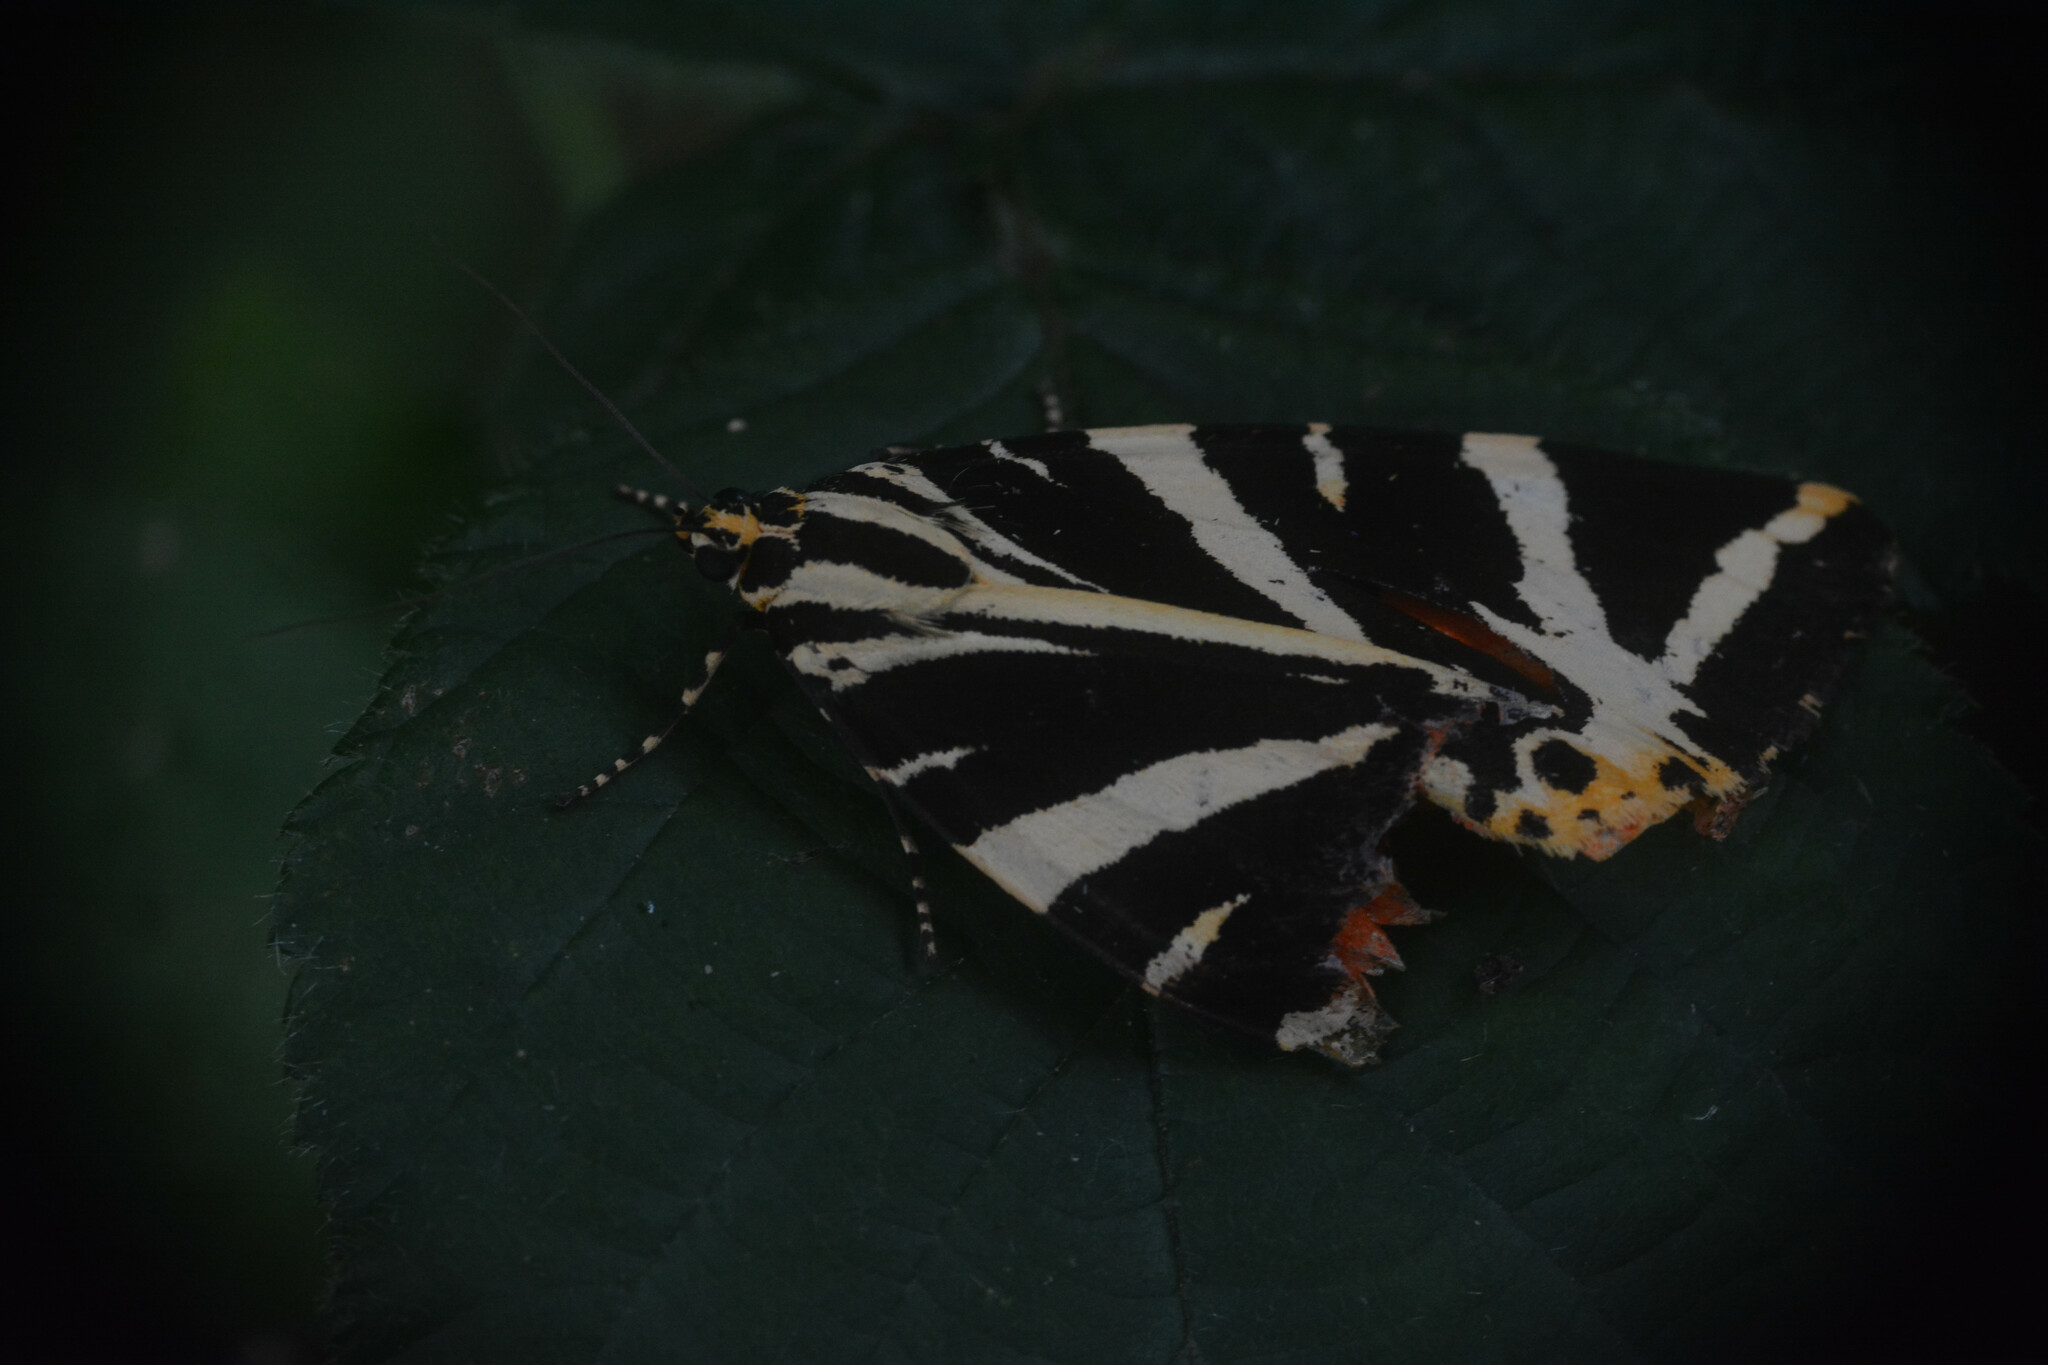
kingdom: Animalia
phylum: Arthropoda
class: Insecta
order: Lepidoptera
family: Erebidae
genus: Euplagia
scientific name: Euplagia quadripunctaria
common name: Jersey tiger
